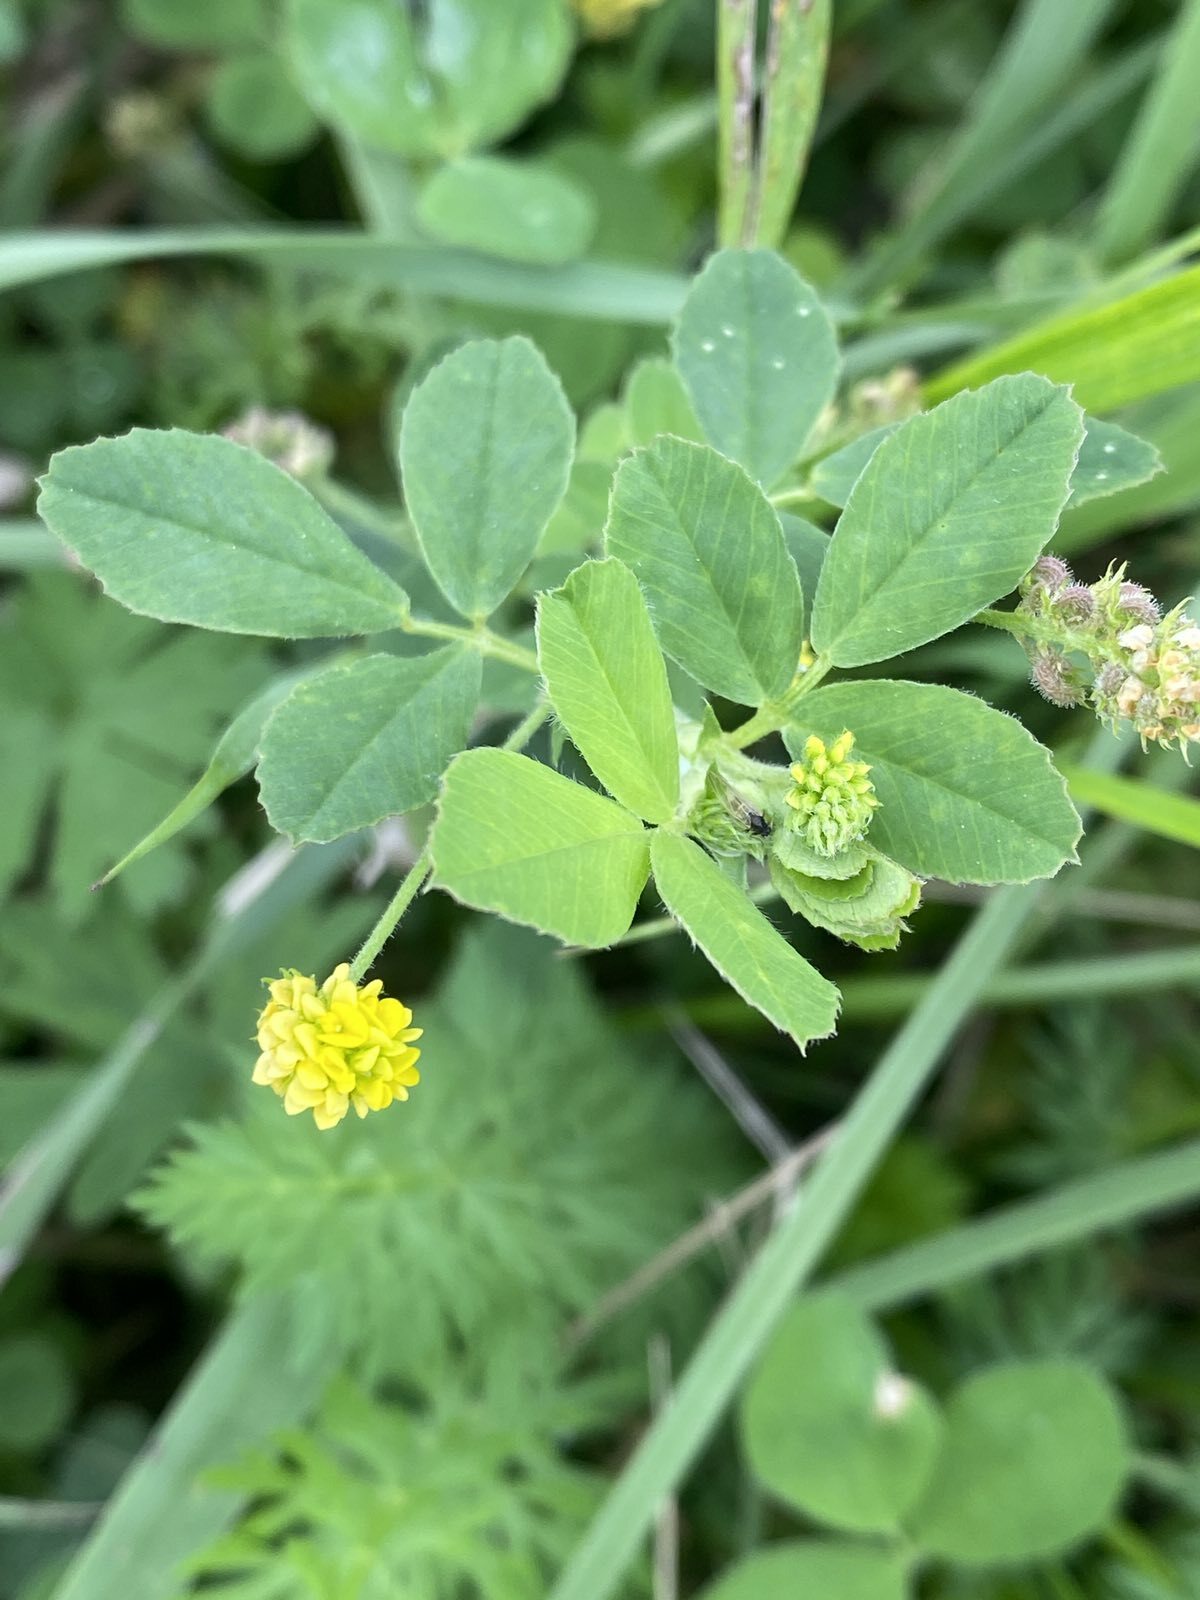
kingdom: Plantae
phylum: Tracheophyta
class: Magnoliopsida
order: Fabales
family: Fabaceae
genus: Medicago
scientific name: Medicago lupulina
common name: Black medick
